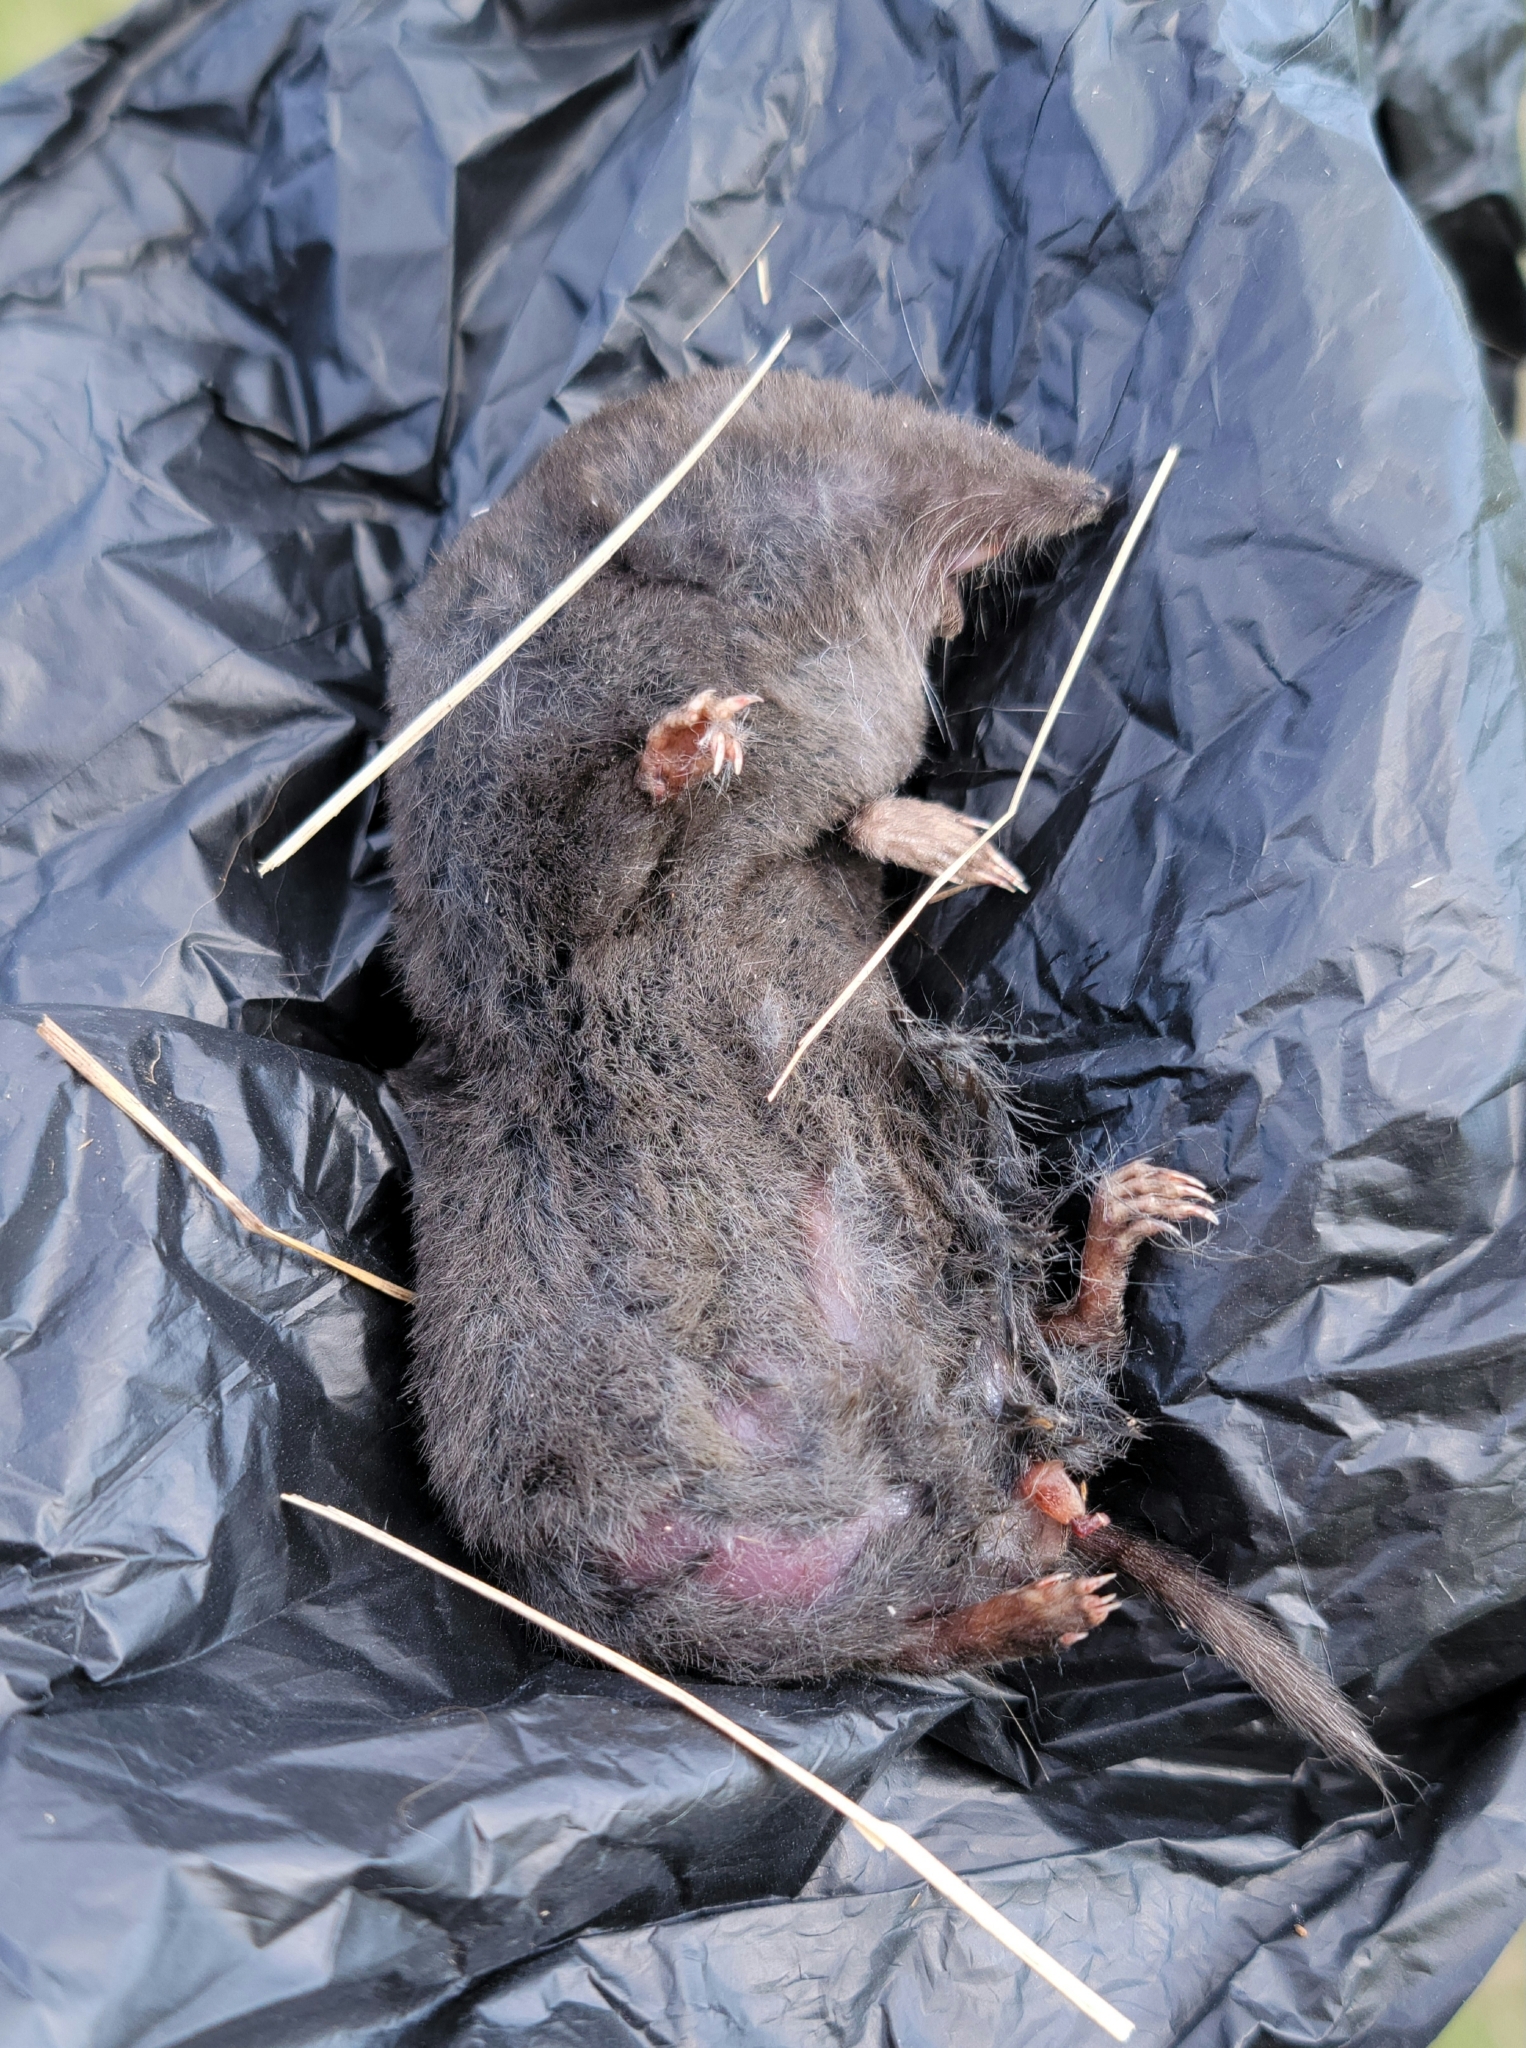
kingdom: Animalia
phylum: Chordata
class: Mammalia
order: Soricomorpha
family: Soricidae
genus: Blarina
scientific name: Blarina brevicauda
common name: Northern short-tailed shrew
